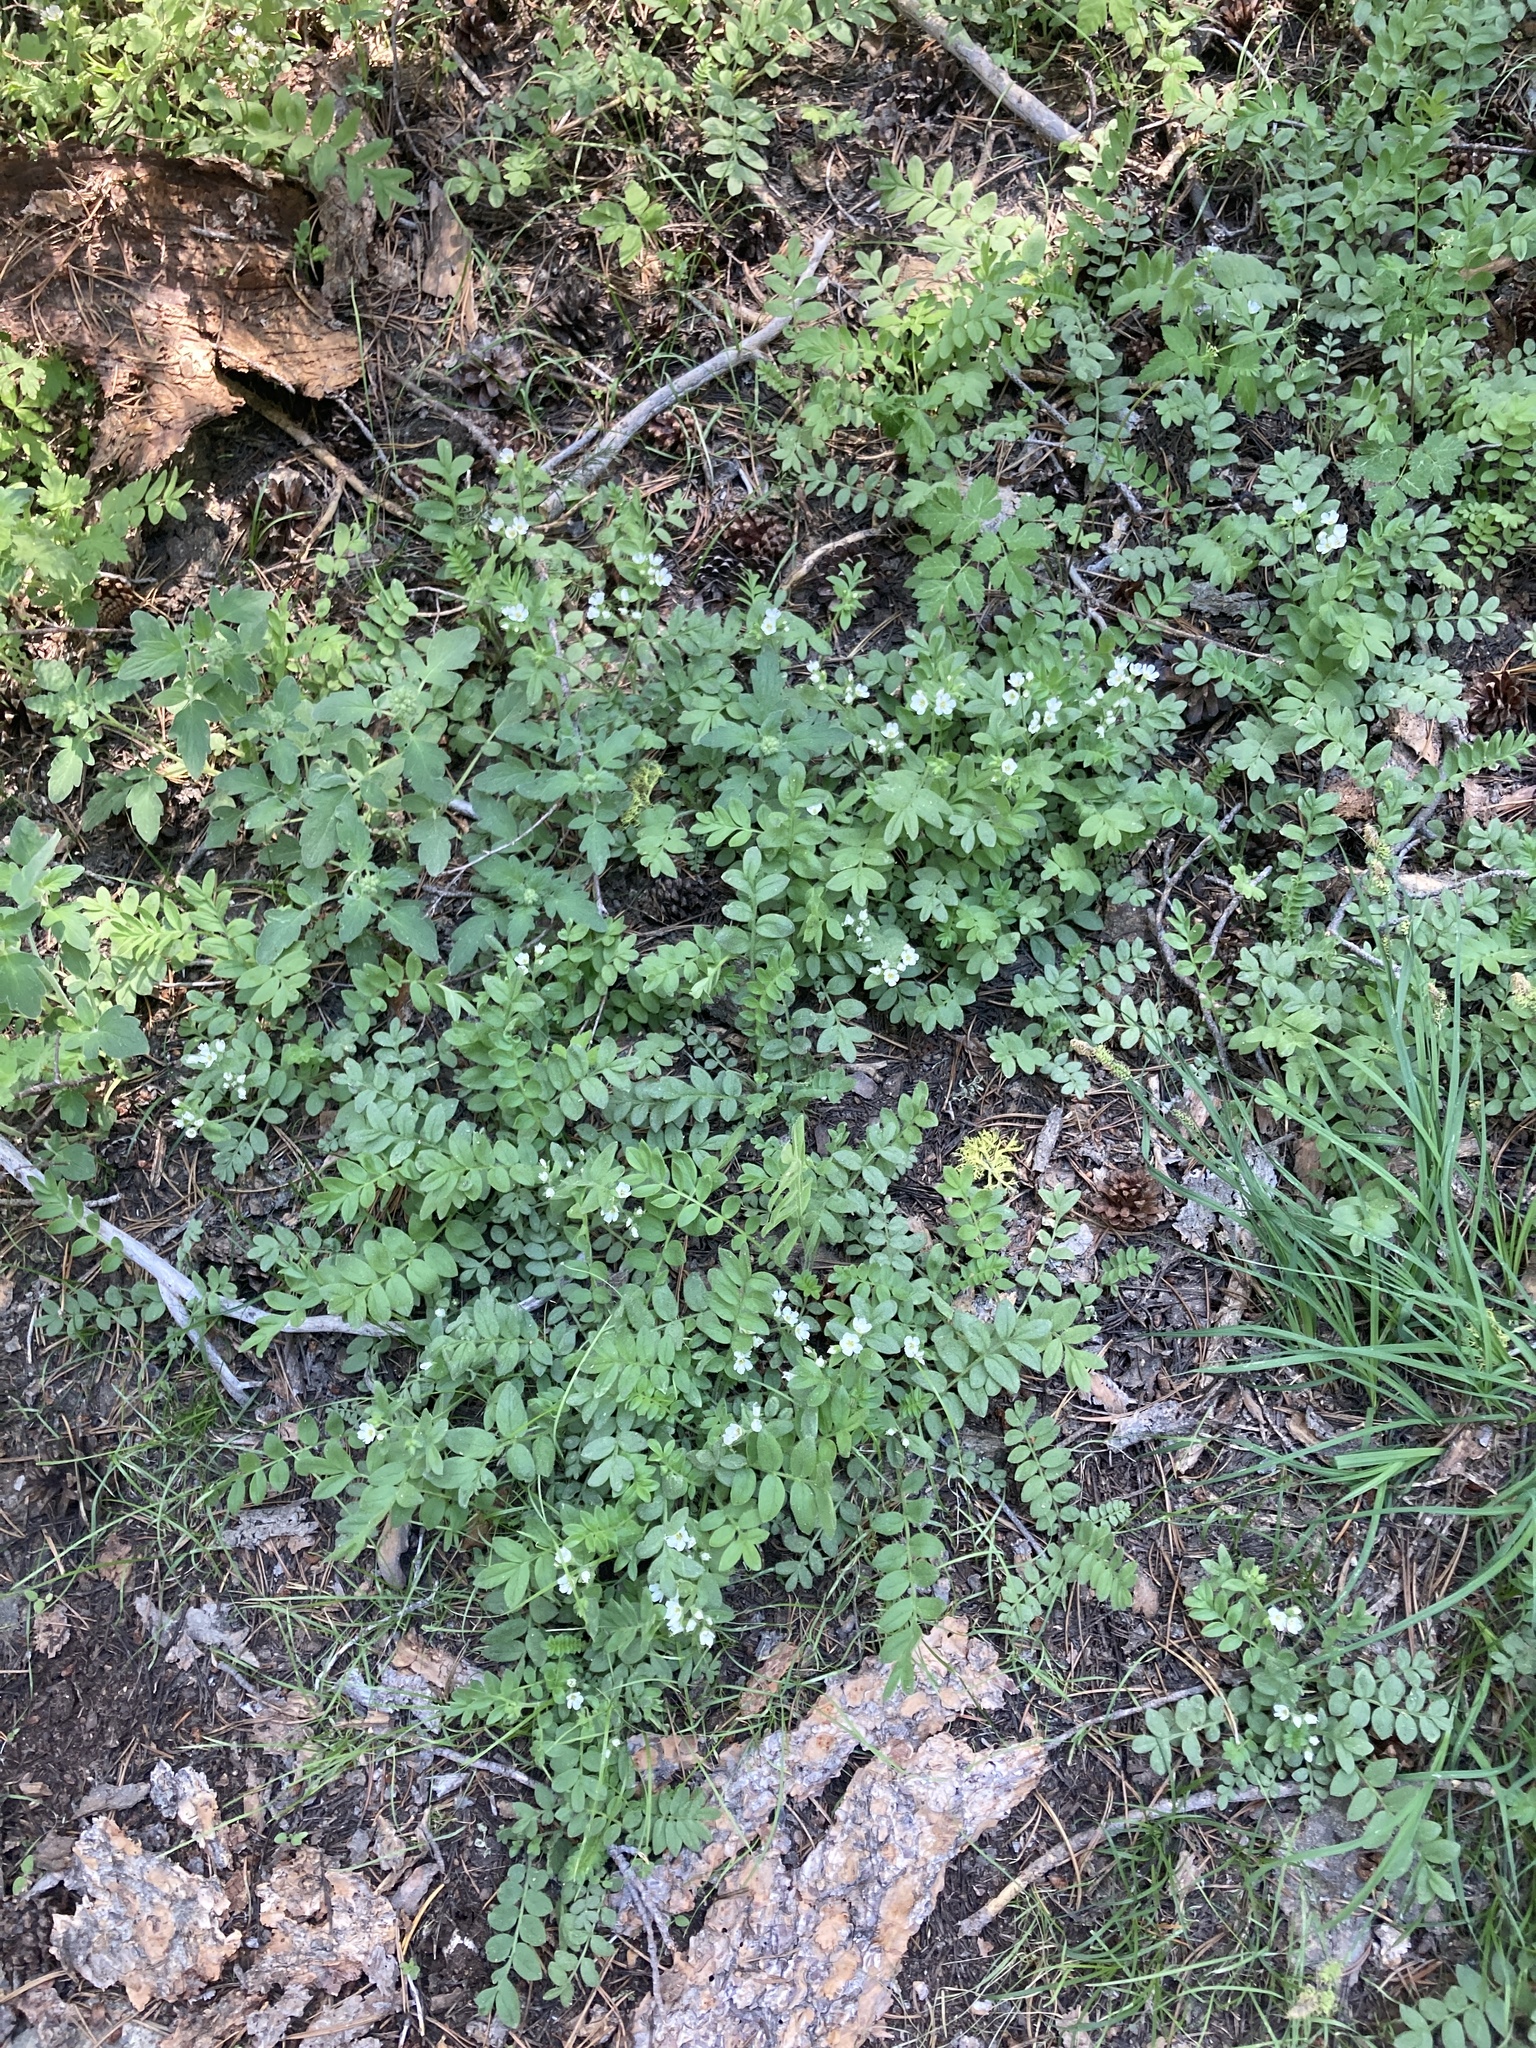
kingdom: Plantae
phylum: Tracheophyta
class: Magnoliopsida
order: Ericales
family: Polemoniaceae
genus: Polemonium
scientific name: Polemonium californicum
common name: California jacob's ladder
